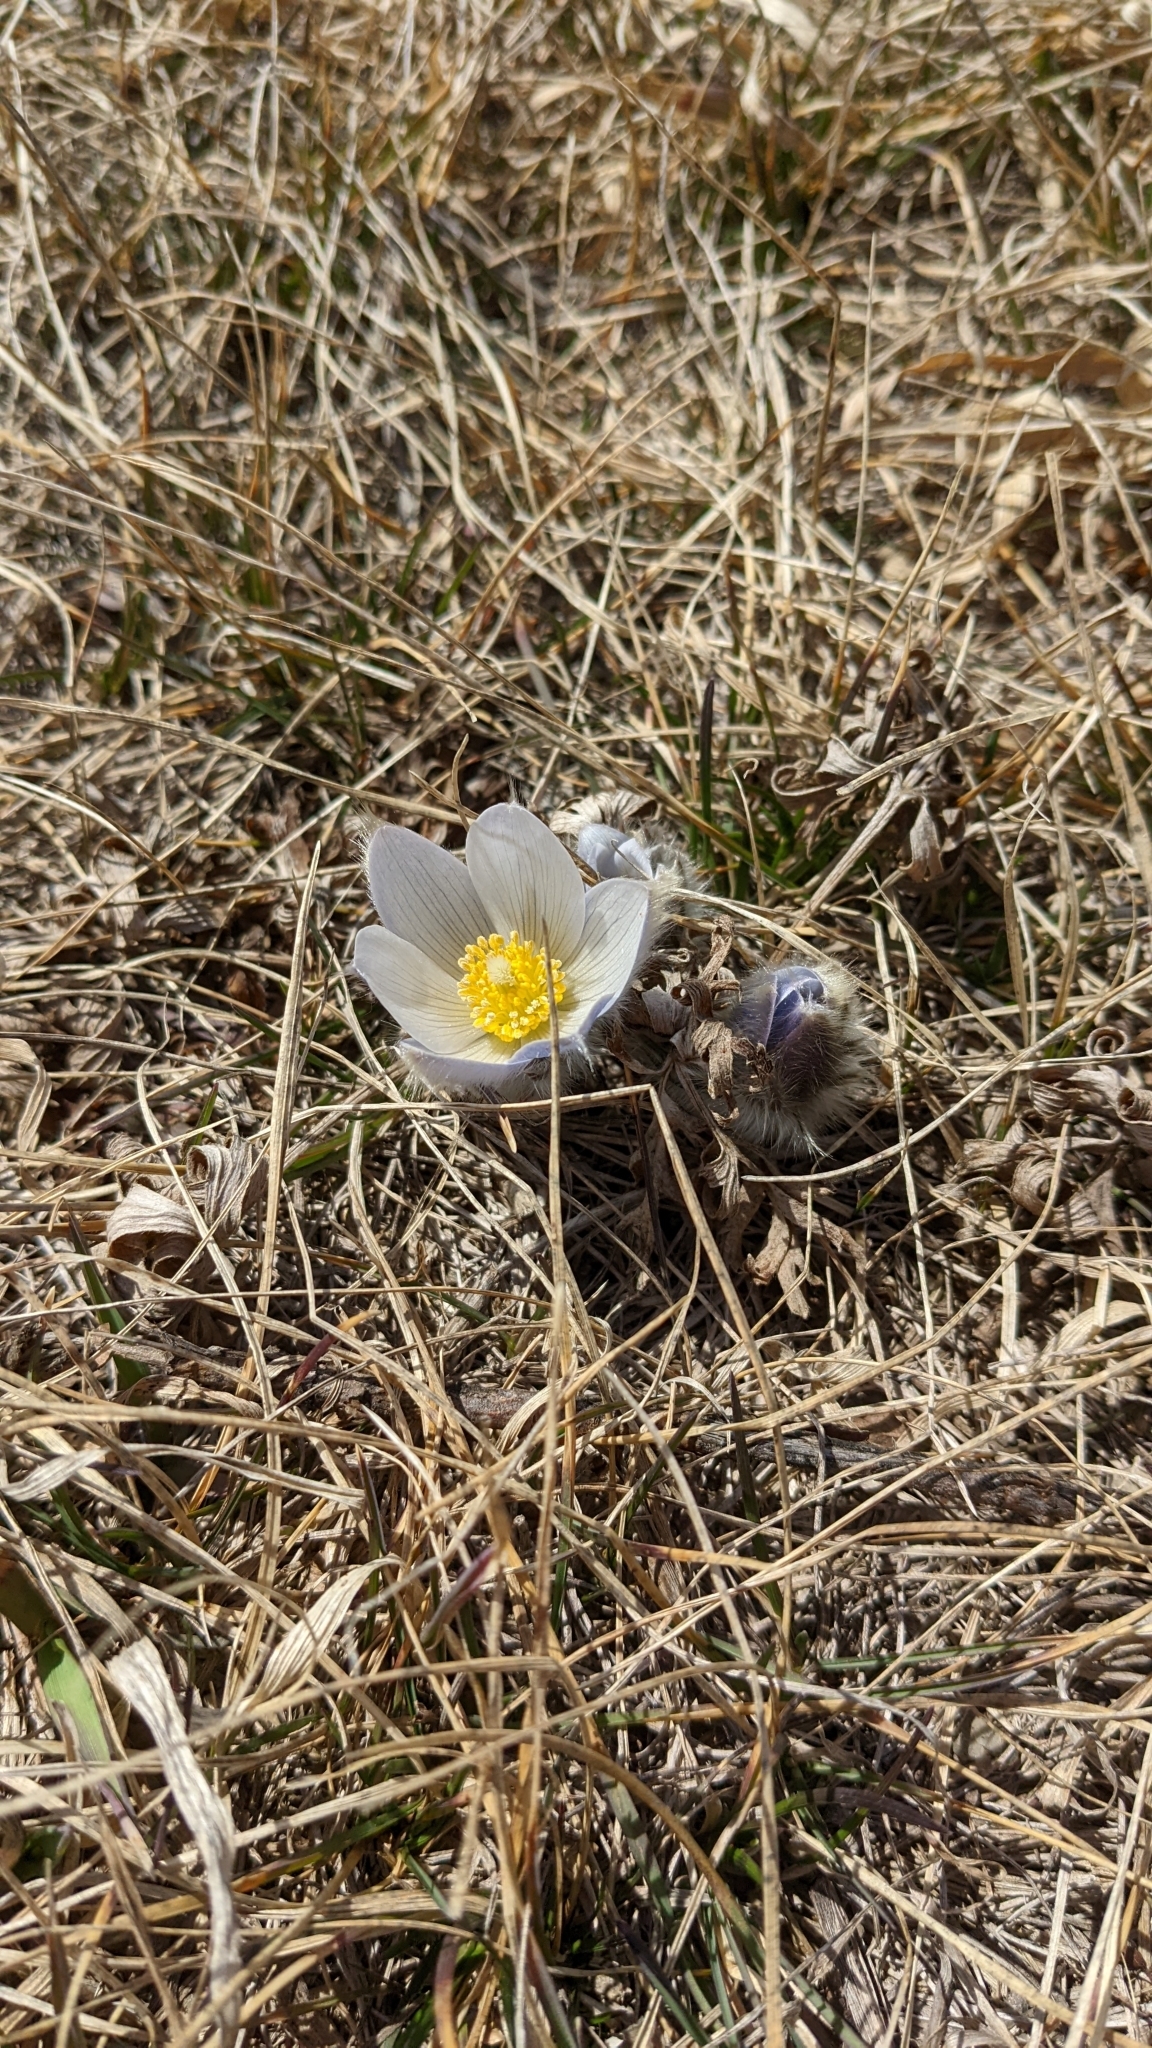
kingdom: Plantae
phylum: Tracheophyta
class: Magnoliopsida
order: Ranunculales
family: Ranunculaceae
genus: Pulsatilla
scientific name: Pulsatilla nuttalliana
